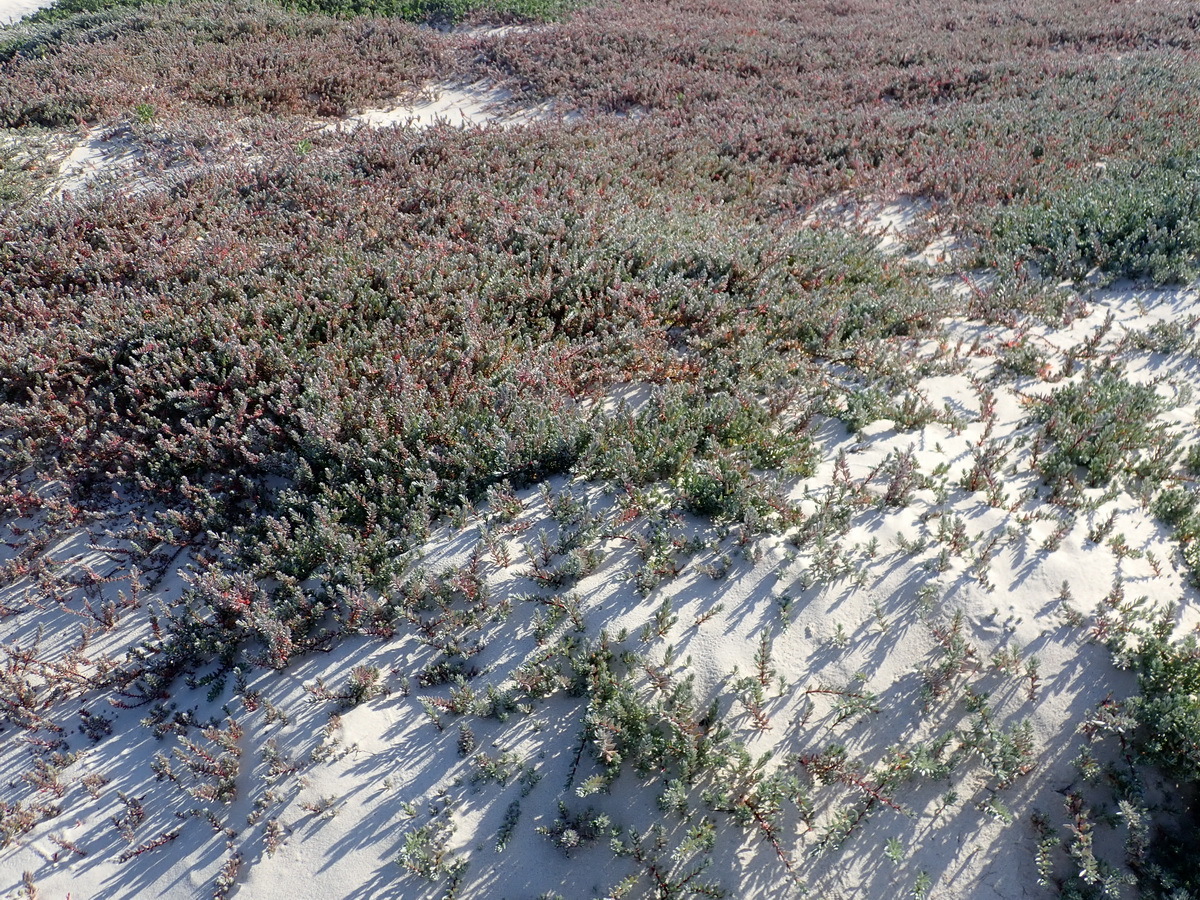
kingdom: Plantae
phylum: Tracheophyta
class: Magnoliopsida
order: Caryophyllales
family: Amaranthaceae
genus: Chenolea
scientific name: Chenolea diffusa
